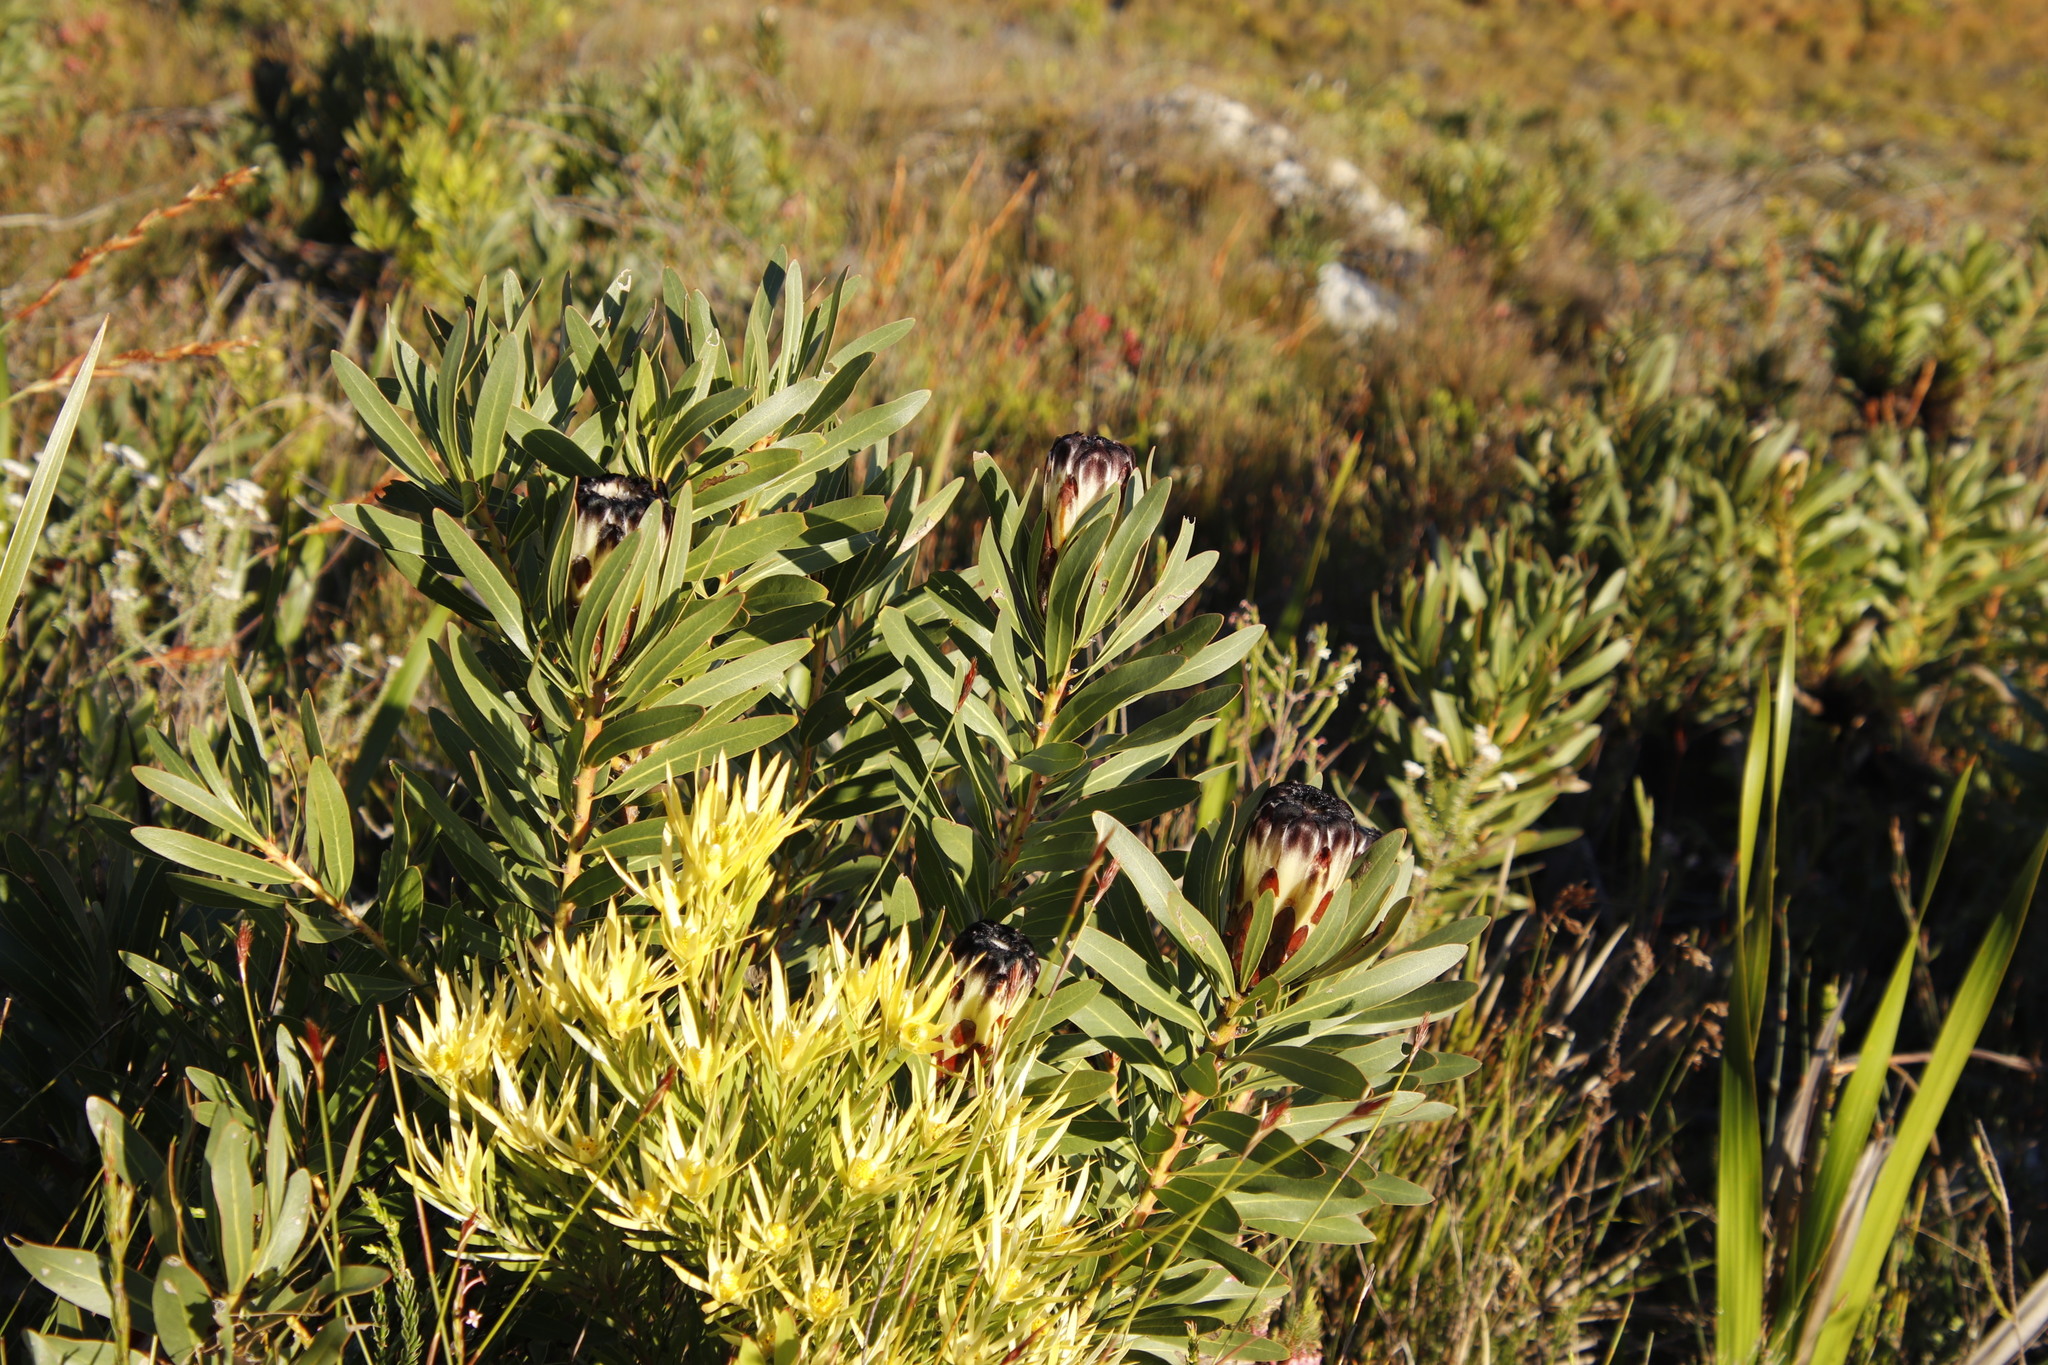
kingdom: Plantae
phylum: Tracheophyta
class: Magnoliopsida
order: Proteales
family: Proteaceae
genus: Protea
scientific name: Protea lepidocarpodendron
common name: Black-bearded protea
